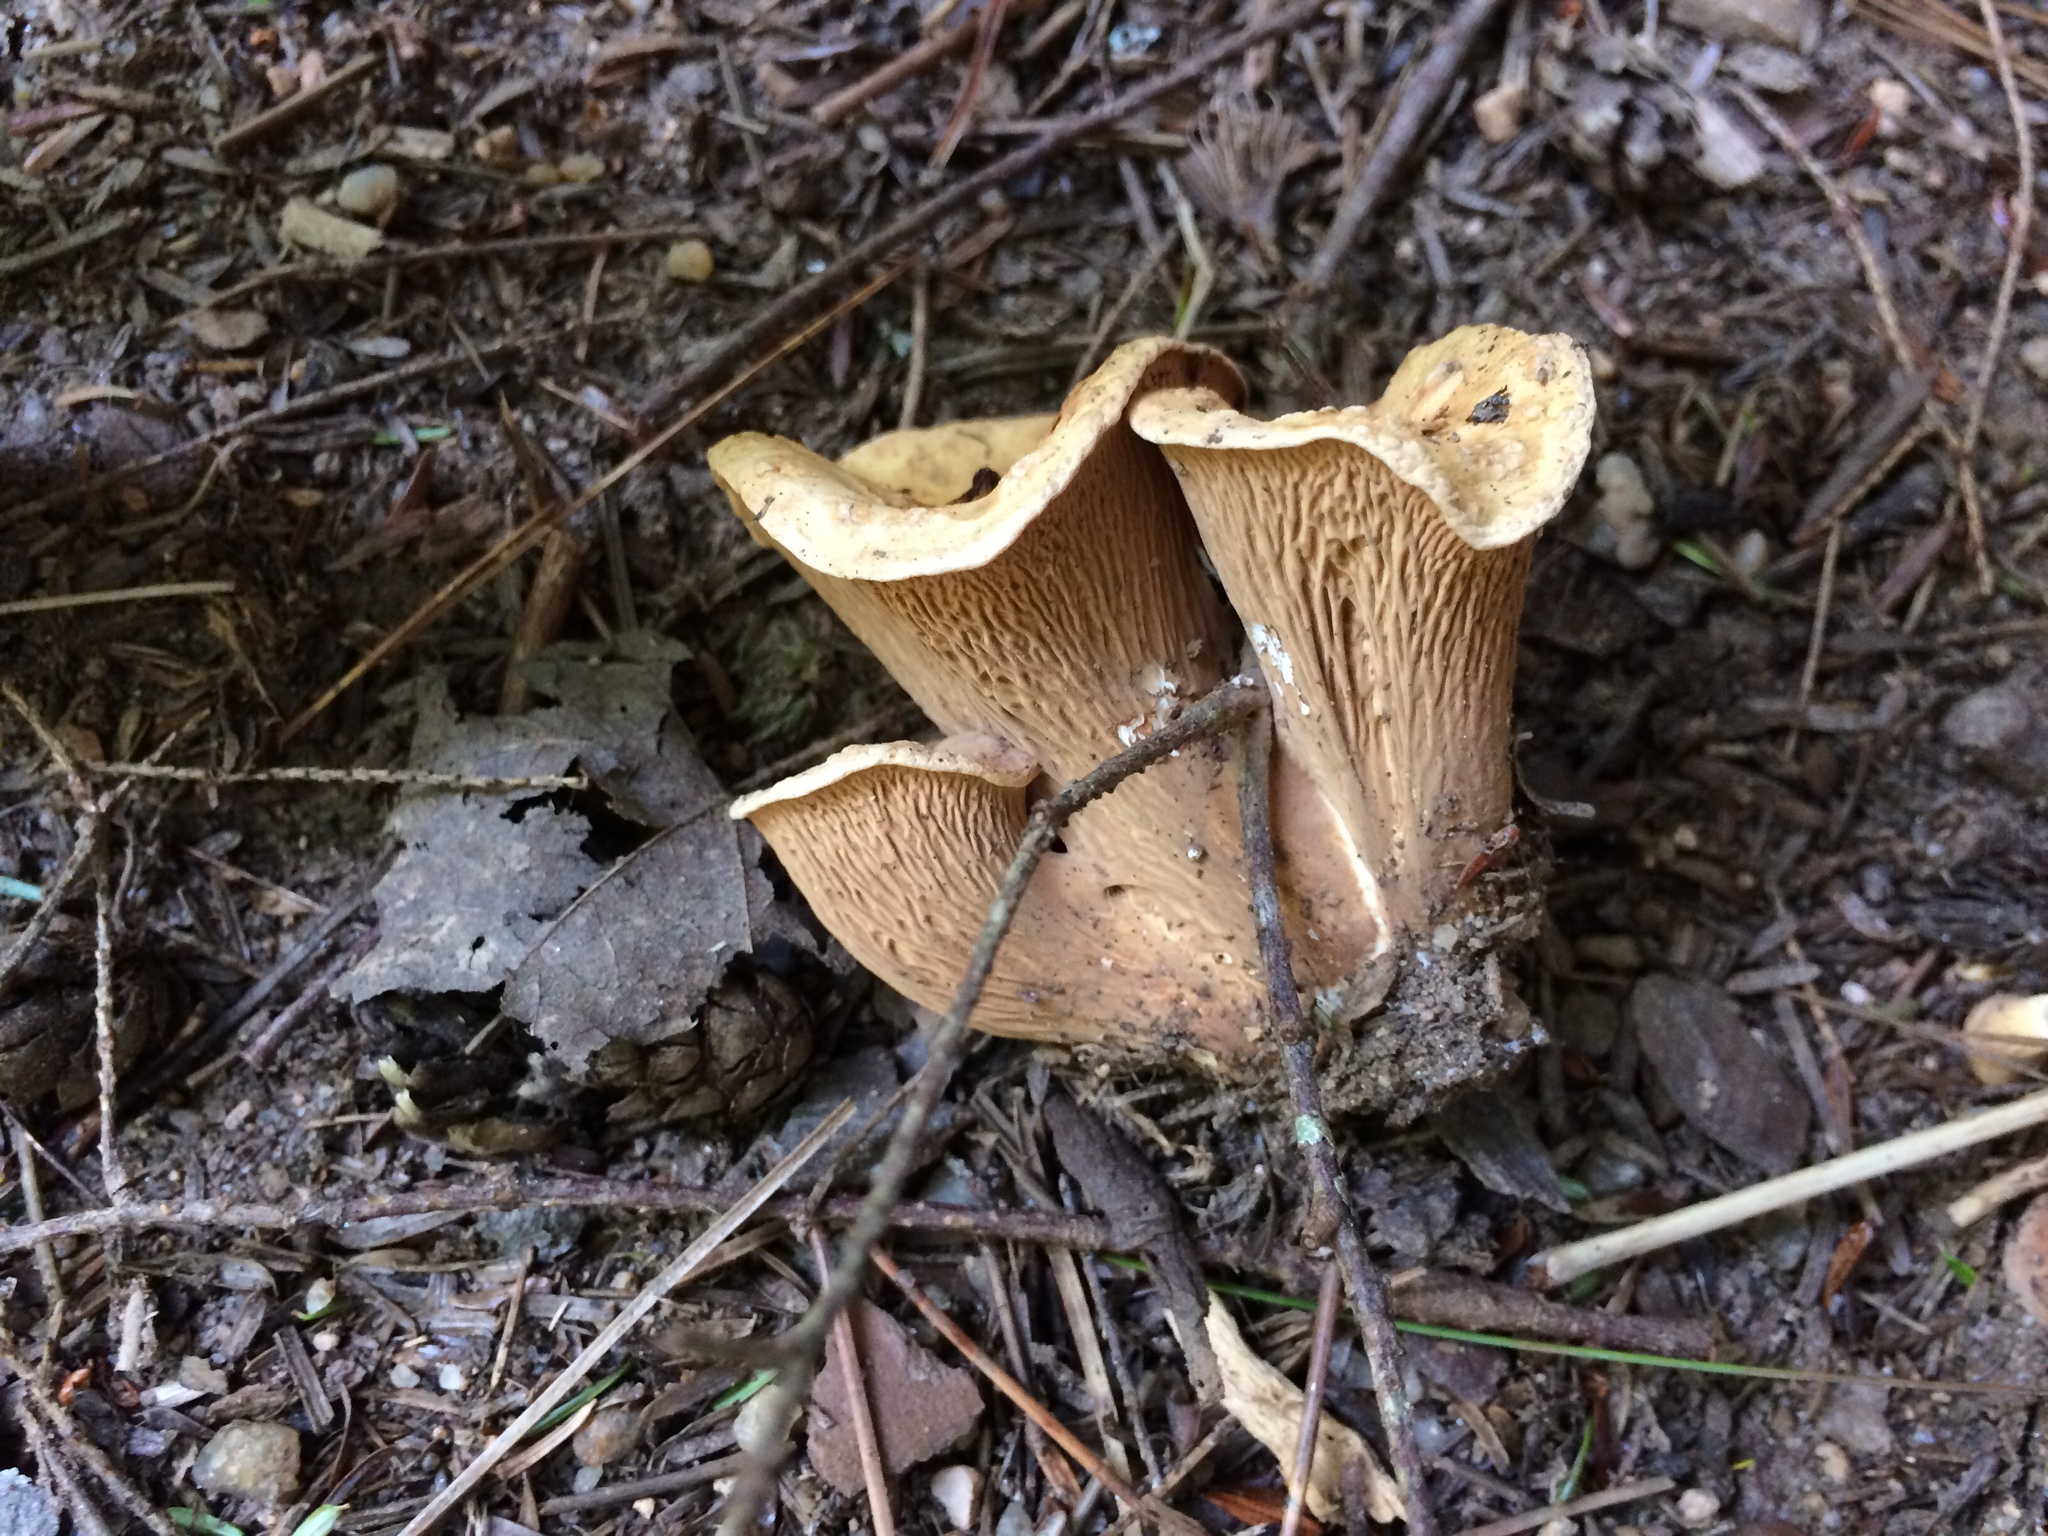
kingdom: Fungi
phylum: Basidiomycota
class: Agaricomycetes
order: Gomphales
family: Gomphaceae
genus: Turbinellus
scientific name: Turbinellus floccosus
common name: Scaly chanterelle
